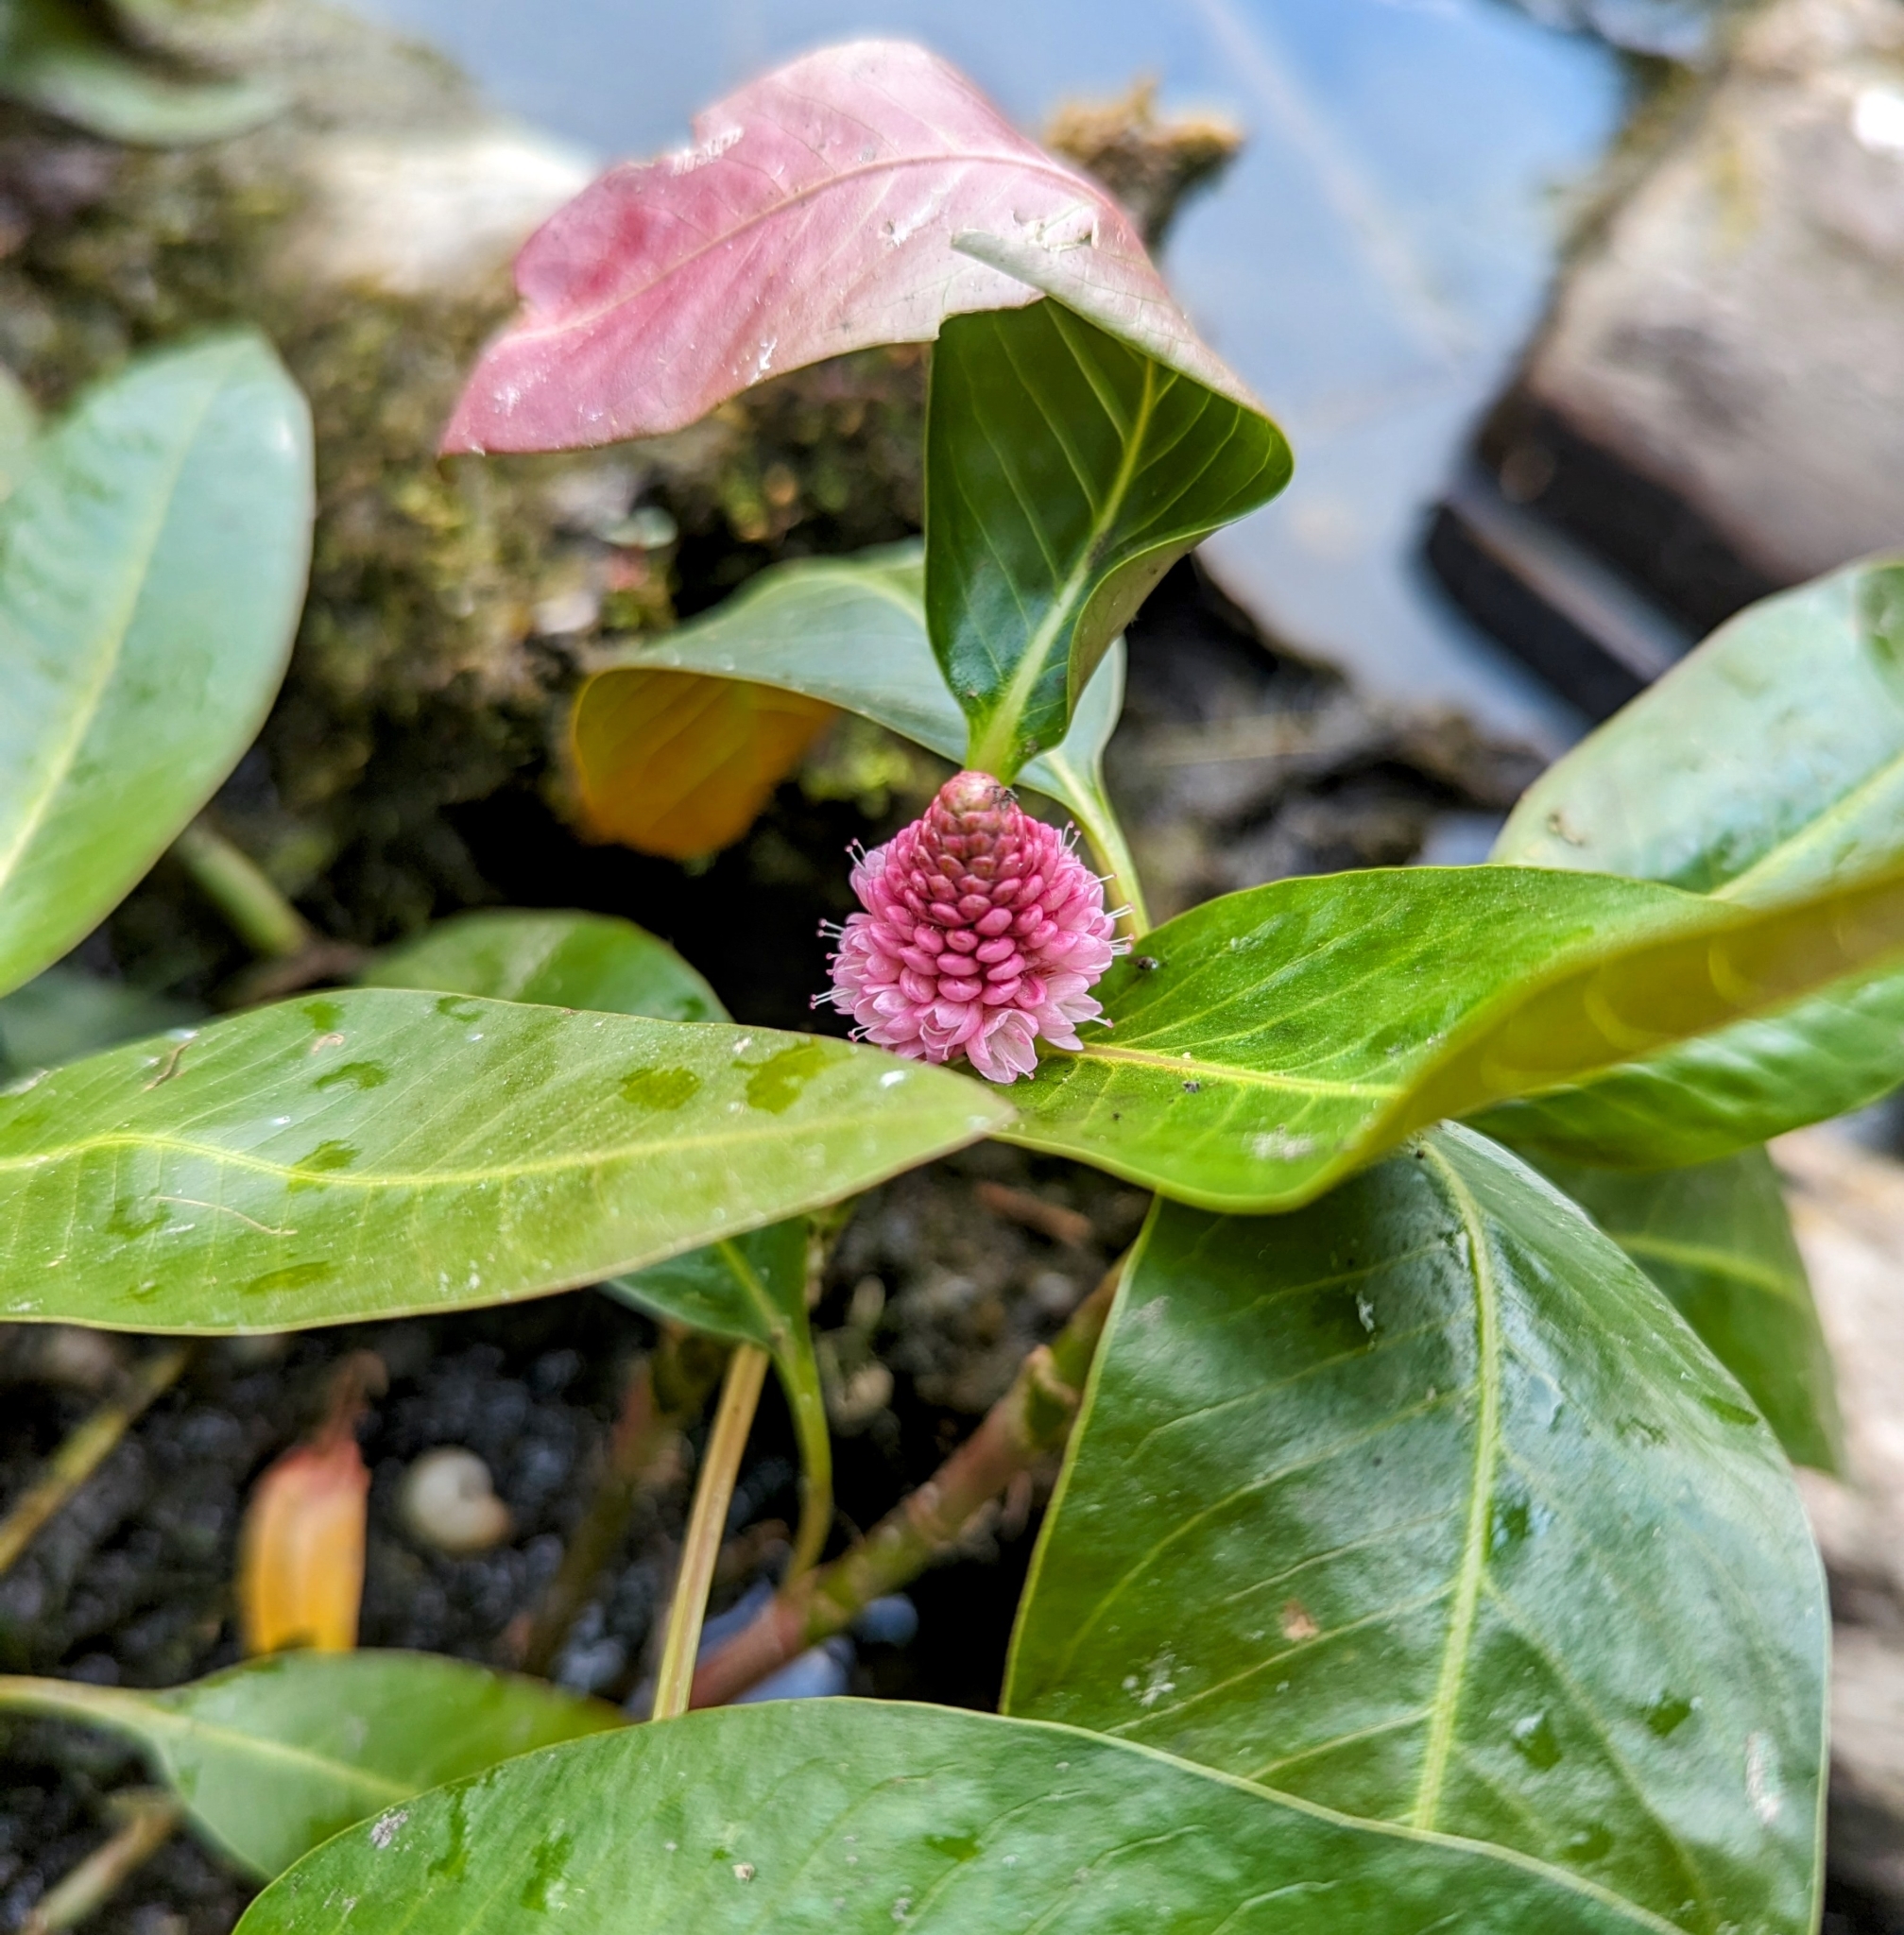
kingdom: Plantae
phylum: Tracheophyta
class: Magnoliopsida
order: Caryophyllales
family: Polygonaceae
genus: Persicaria
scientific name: Persicaria amphibia
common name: Amphibious bistort
